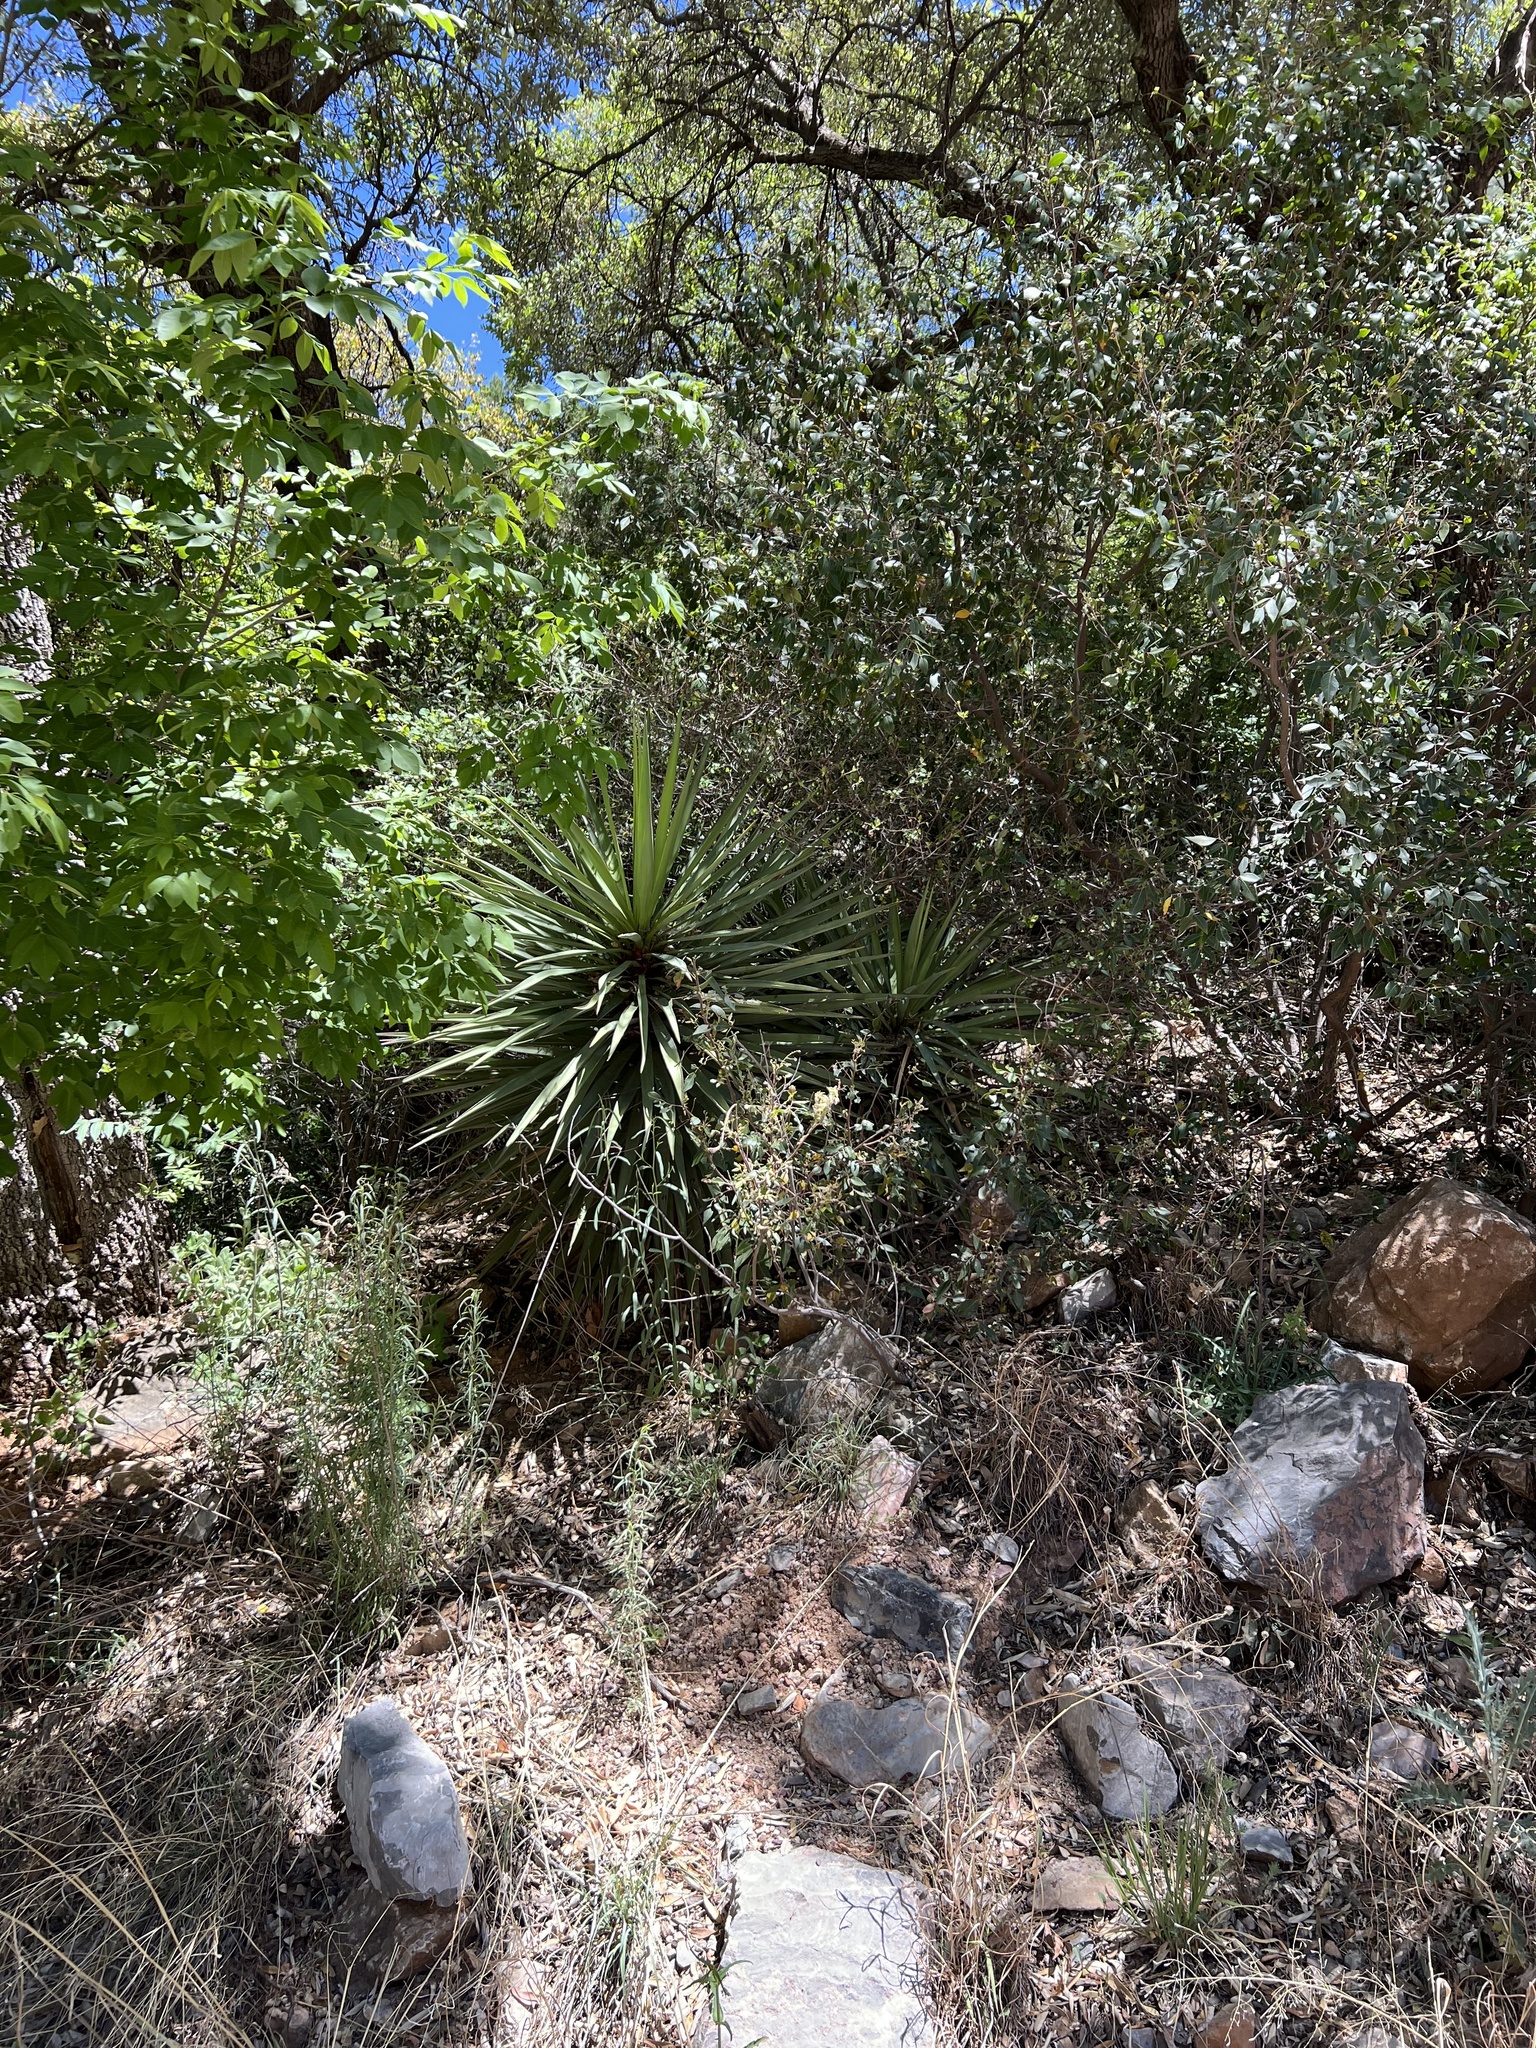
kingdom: Plantae
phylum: Tracheophyta
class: Liliopsida
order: Asparagales
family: Asparagaceae
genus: Yucca
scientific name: Yucca schottii
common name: Hoary yucca
